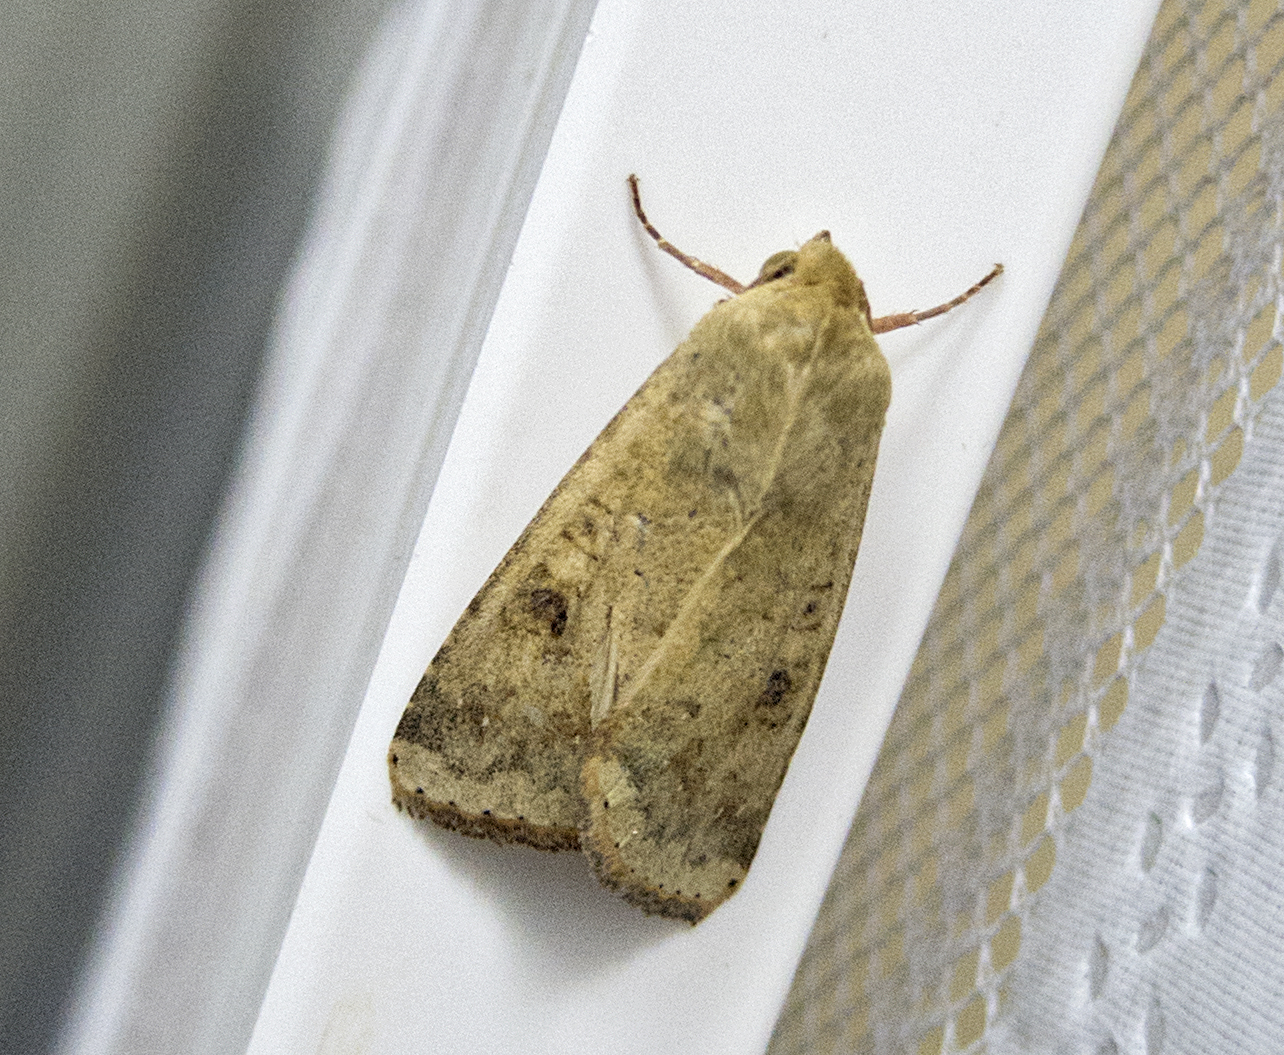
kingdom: Animalia
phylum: Arthropoda
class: Insecta
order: Lepidoptera
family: Noctuidae
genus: Helicoverpa
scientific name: Helicoverpa armigera
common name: Cotton bollworm
